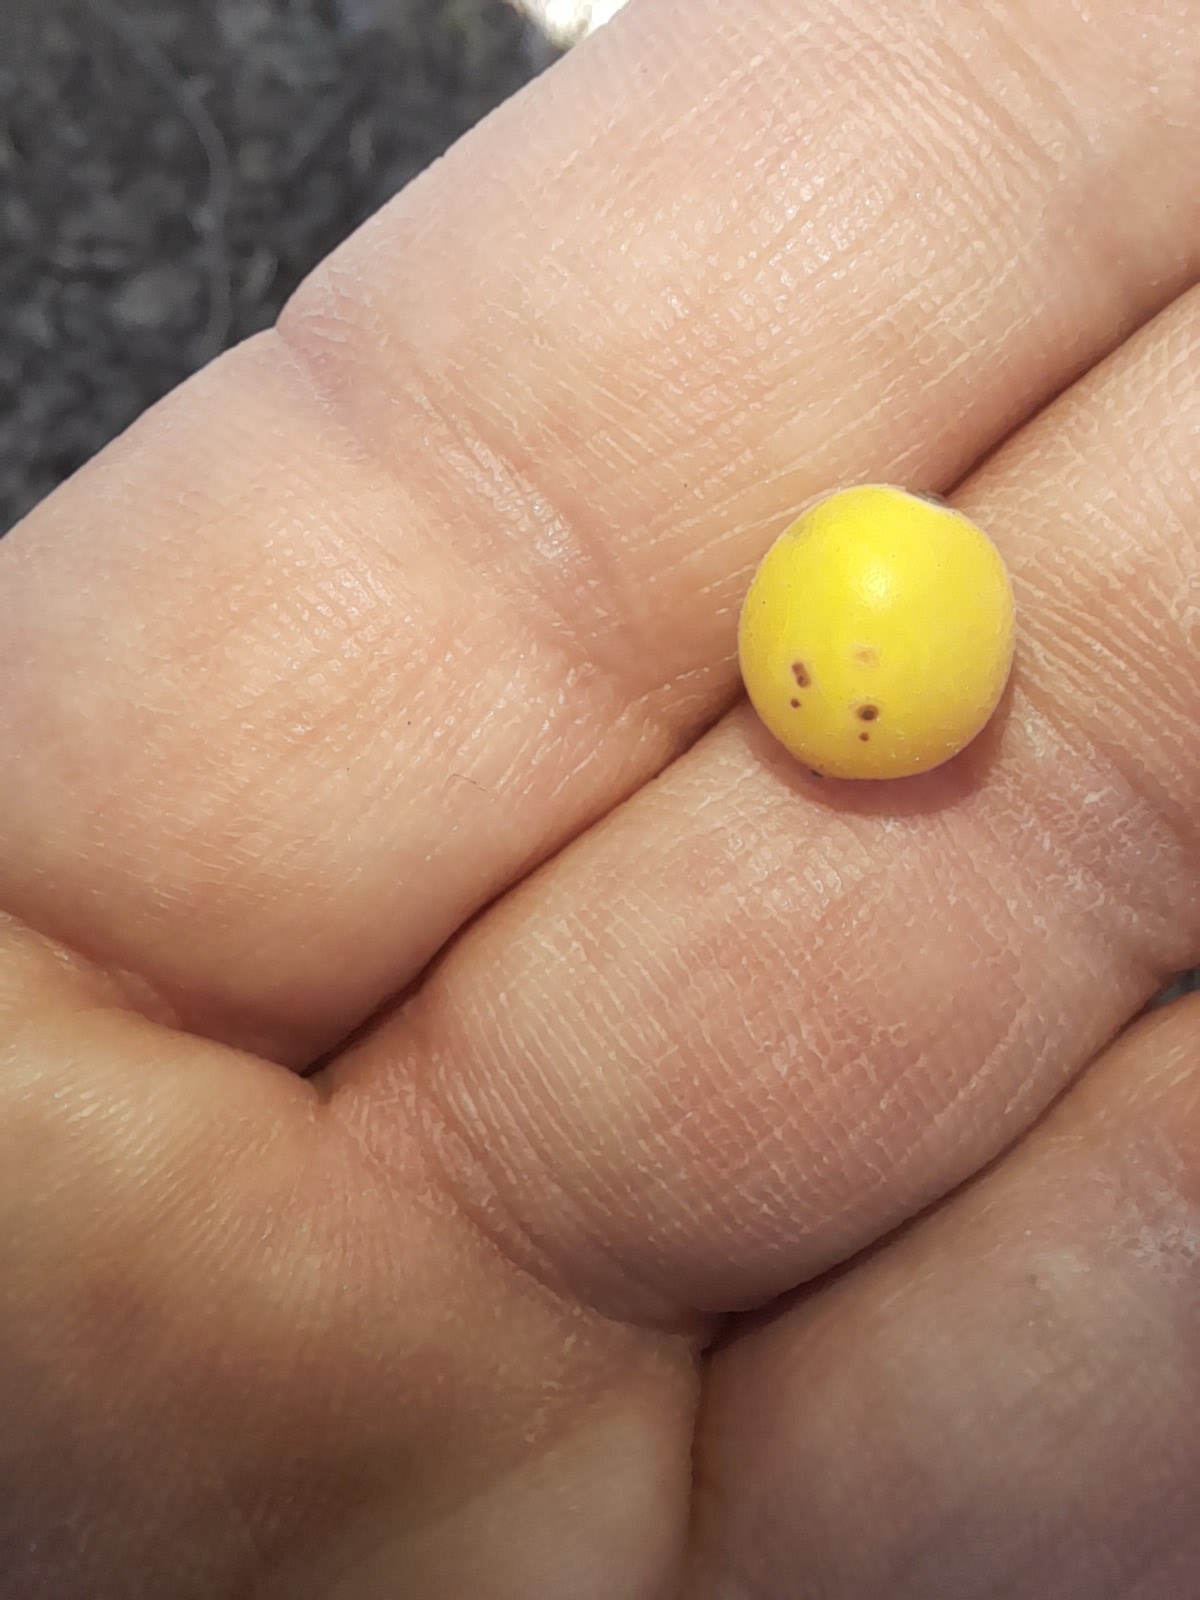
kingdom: Plantae
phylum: Tracheophyta
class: Magnoliopsida
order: Santalales
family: Loranthaceae
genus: Loranthus
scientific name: Loranthus europaeus
